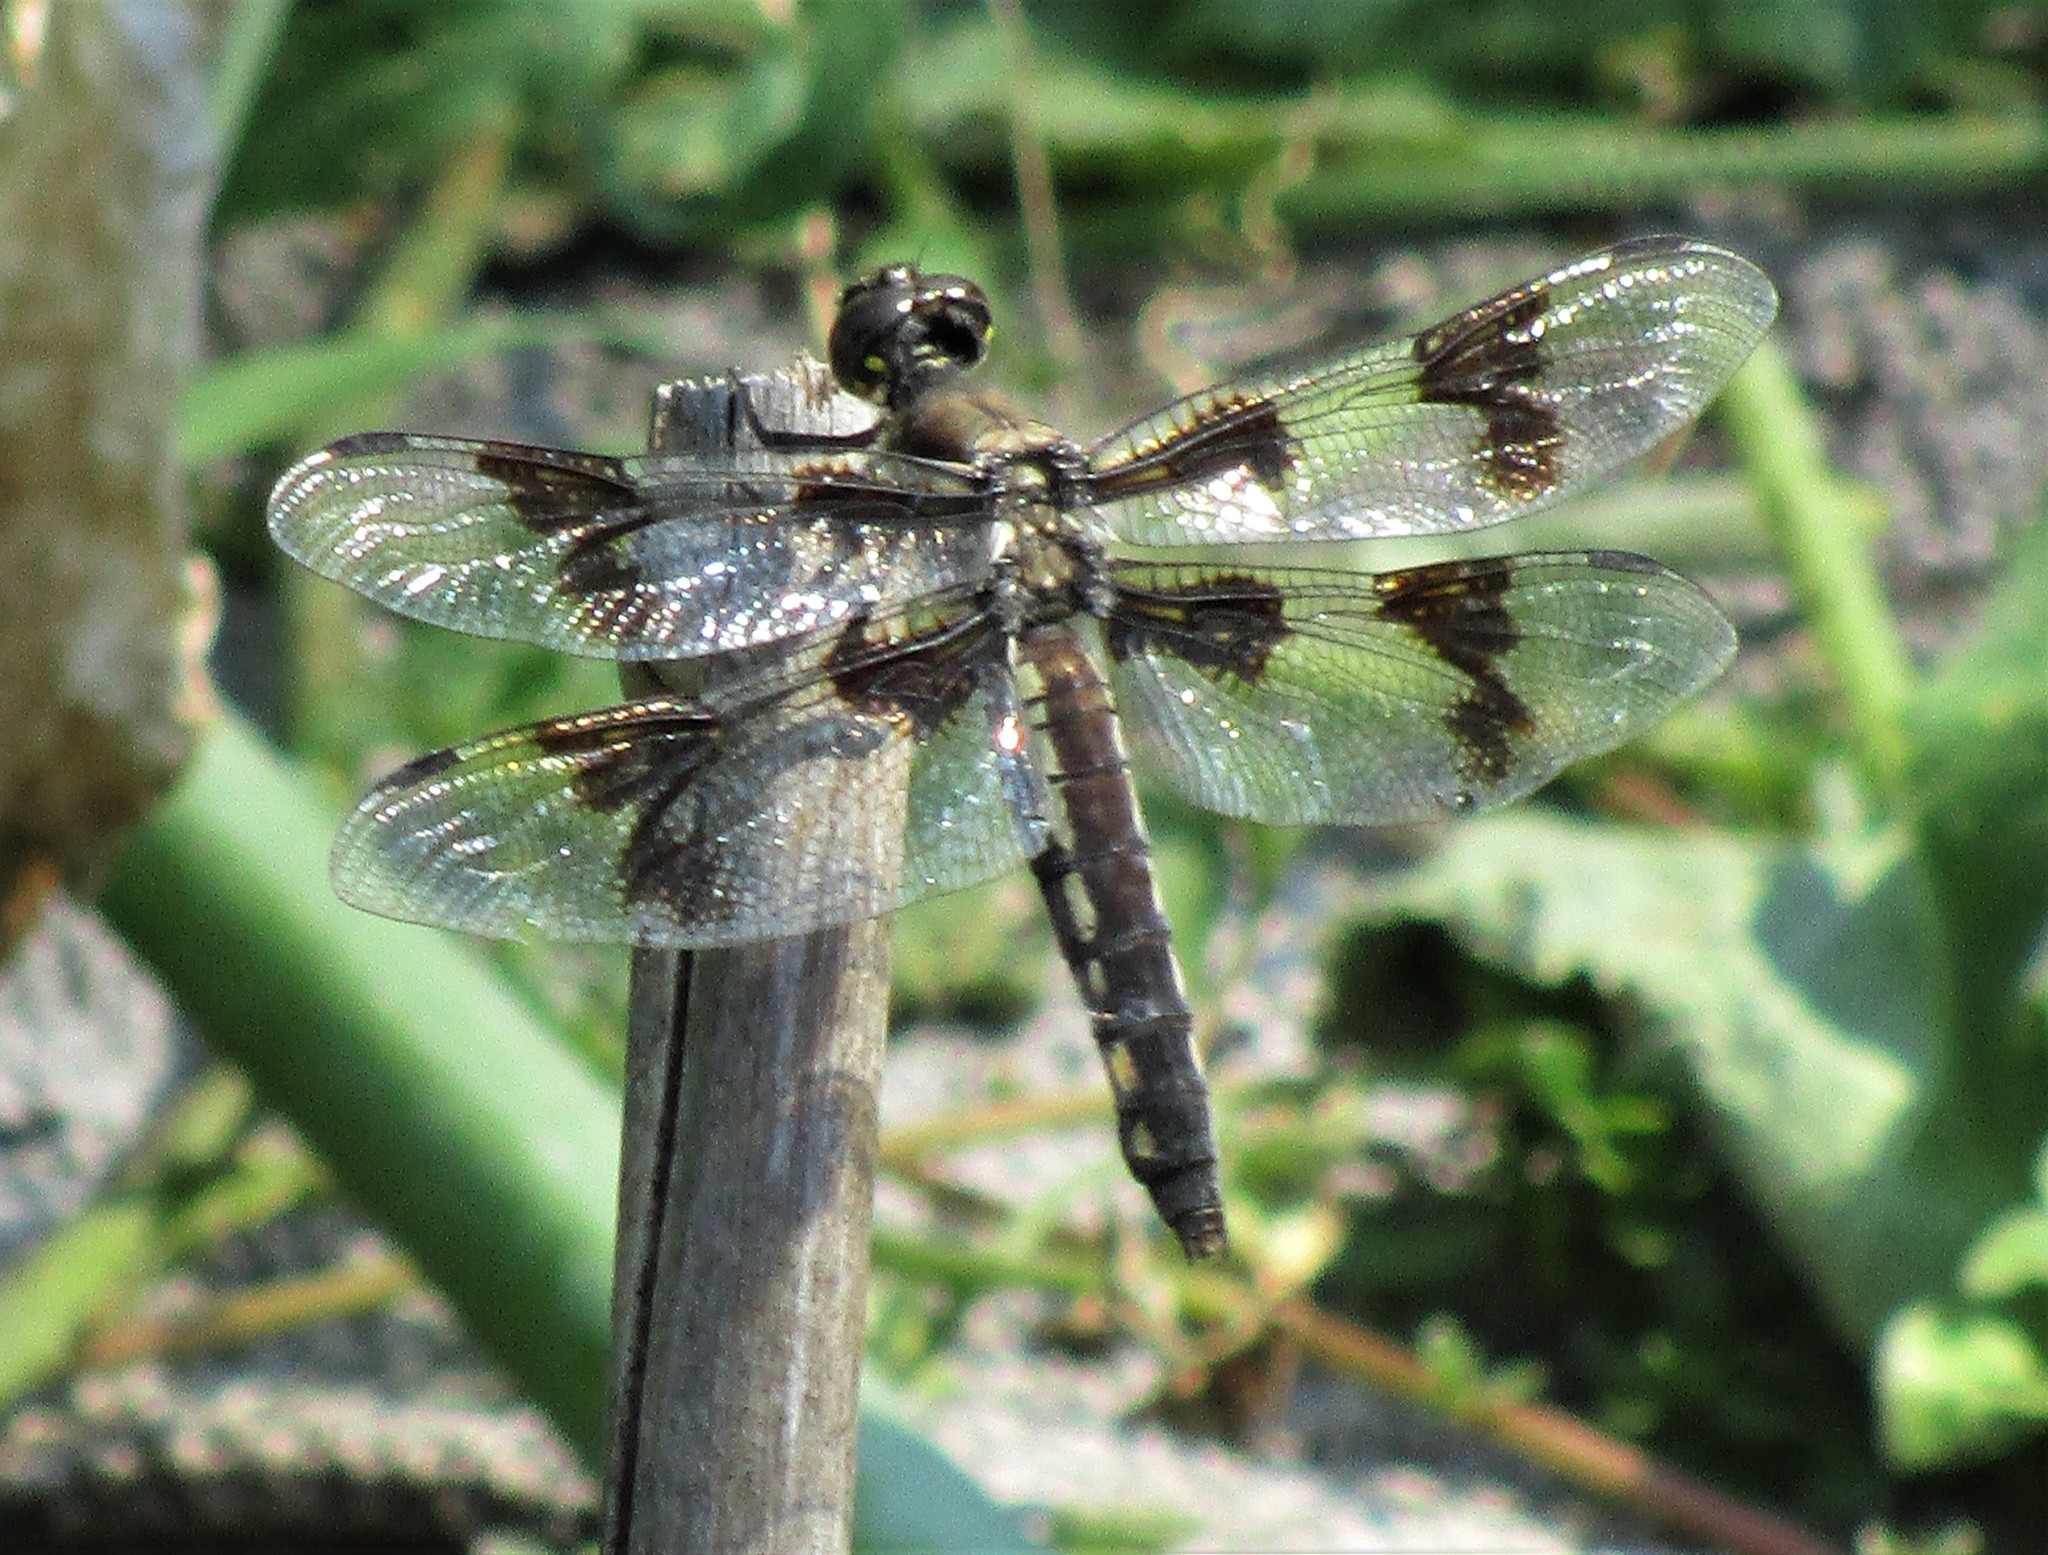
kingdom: Animalia
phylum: Arthropoda
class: Insecta
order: Odonata
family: Libellulidae
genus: Libellula
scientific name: Libellula forensis
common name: Eight-spotted skimmer
